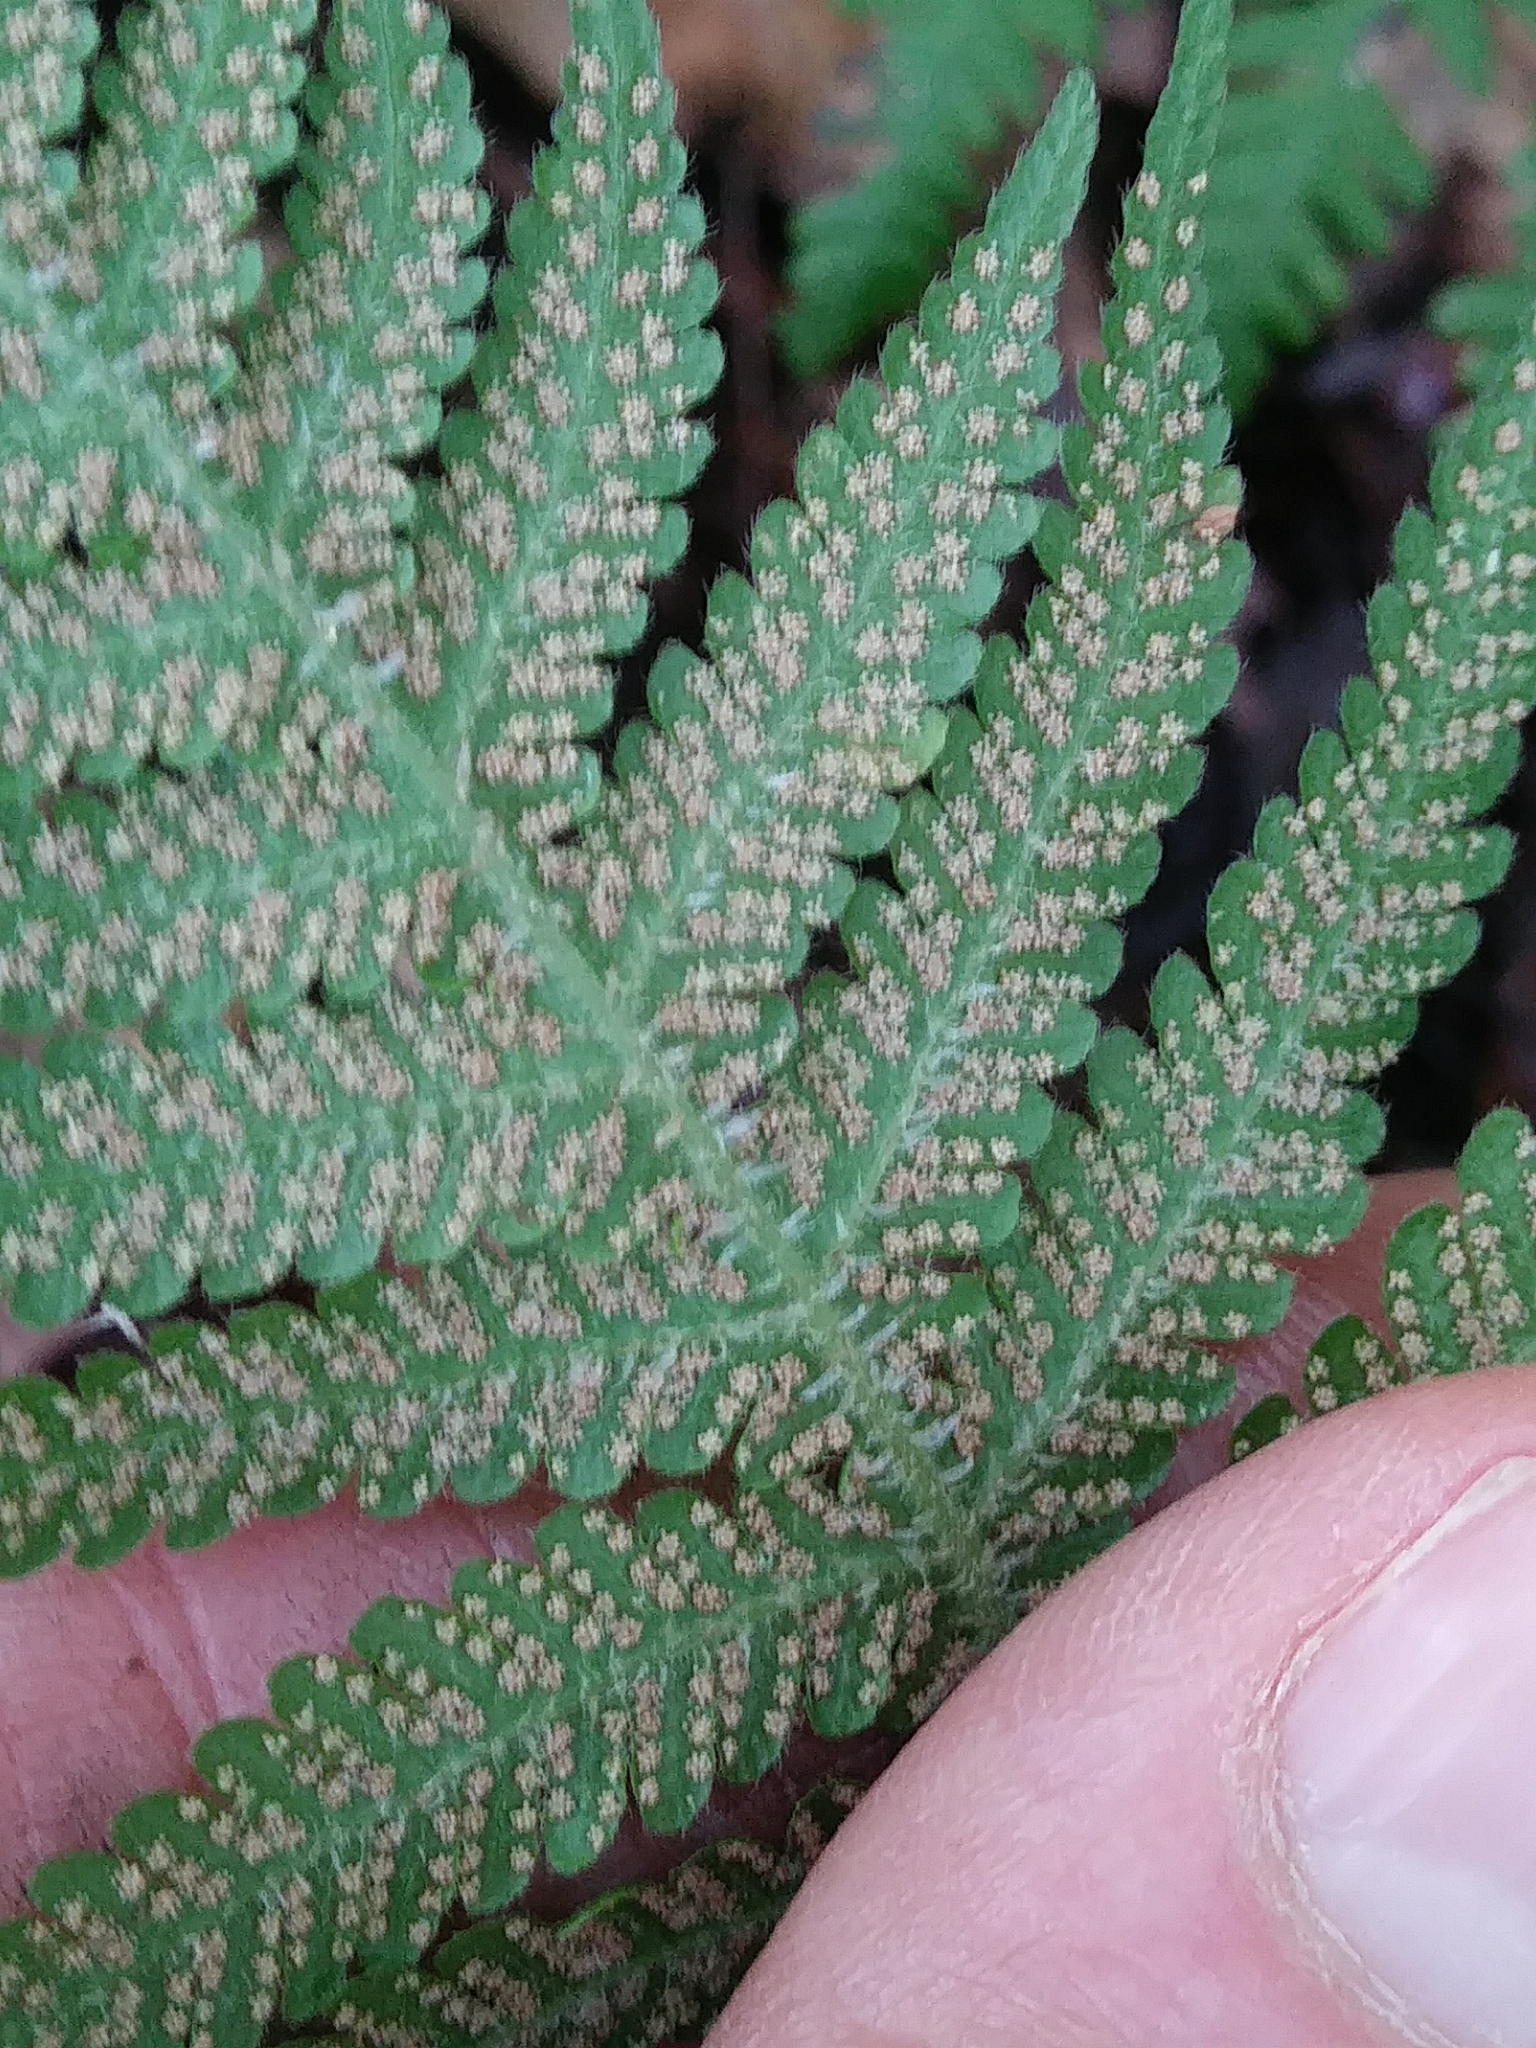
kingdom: Plantae
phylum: Tracheophyta
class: Polypodiopsida
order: Polypodiales
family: Thelypteridaceae
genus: Phegopteris
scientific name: Phegopteris connectilis
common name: Beech fern
